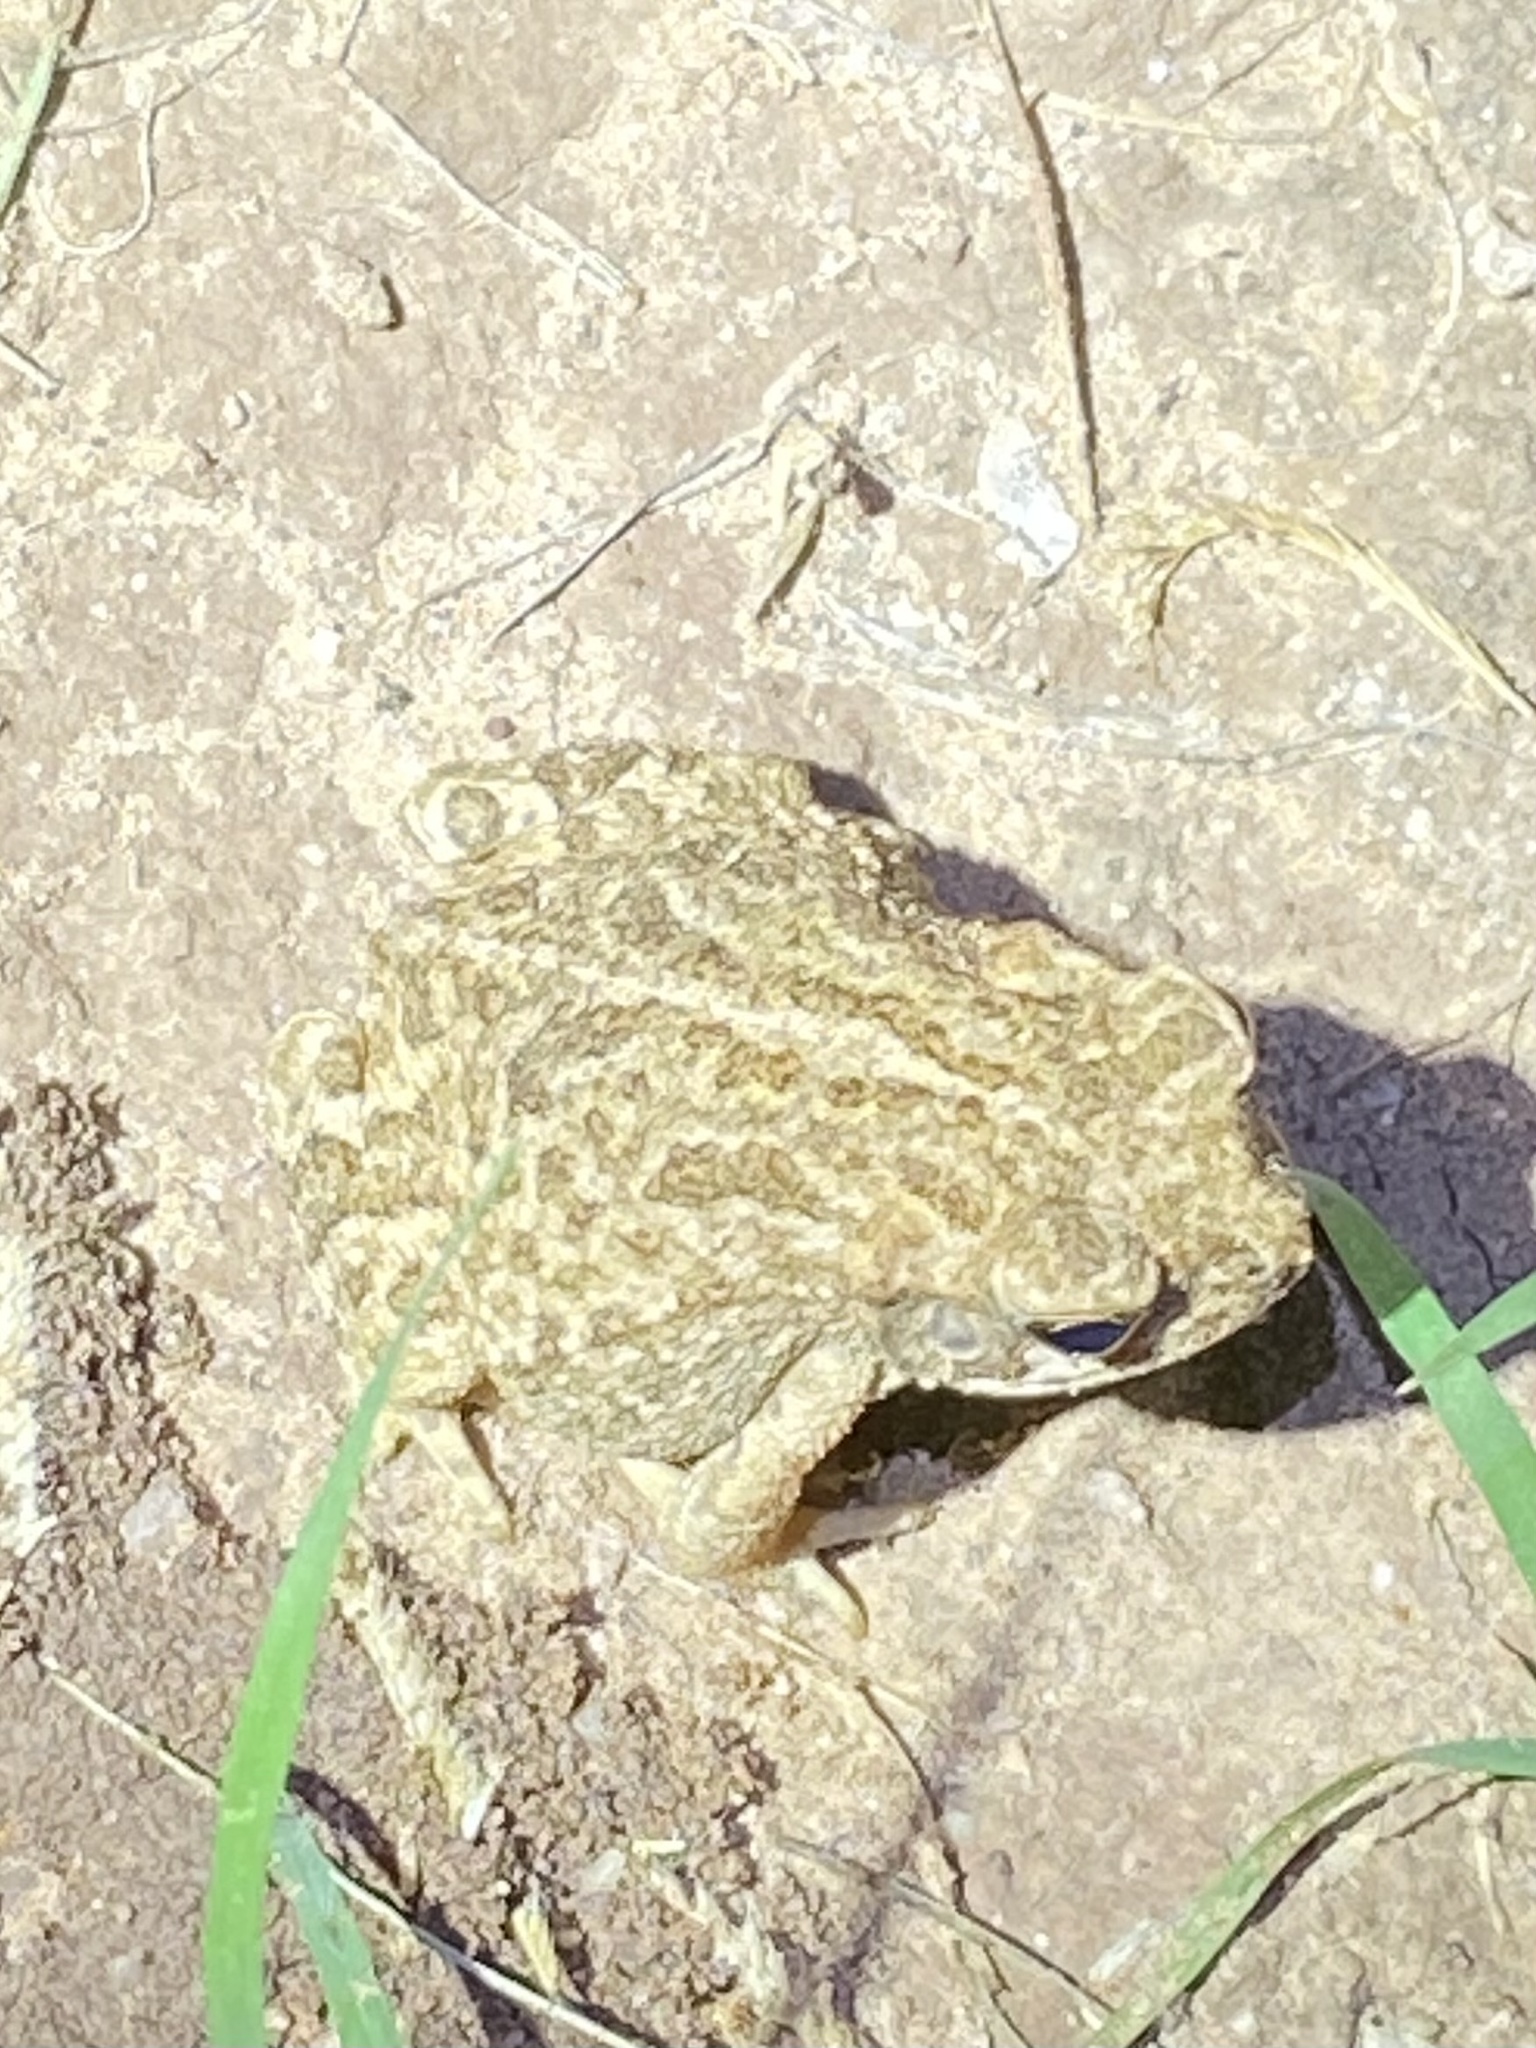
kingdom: Animalia
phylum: Chordata
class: Amphibia
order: Anura
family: Bufonidae
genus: Incilius
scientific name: Incilius mazatlanensis
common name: Sinaloa toad
